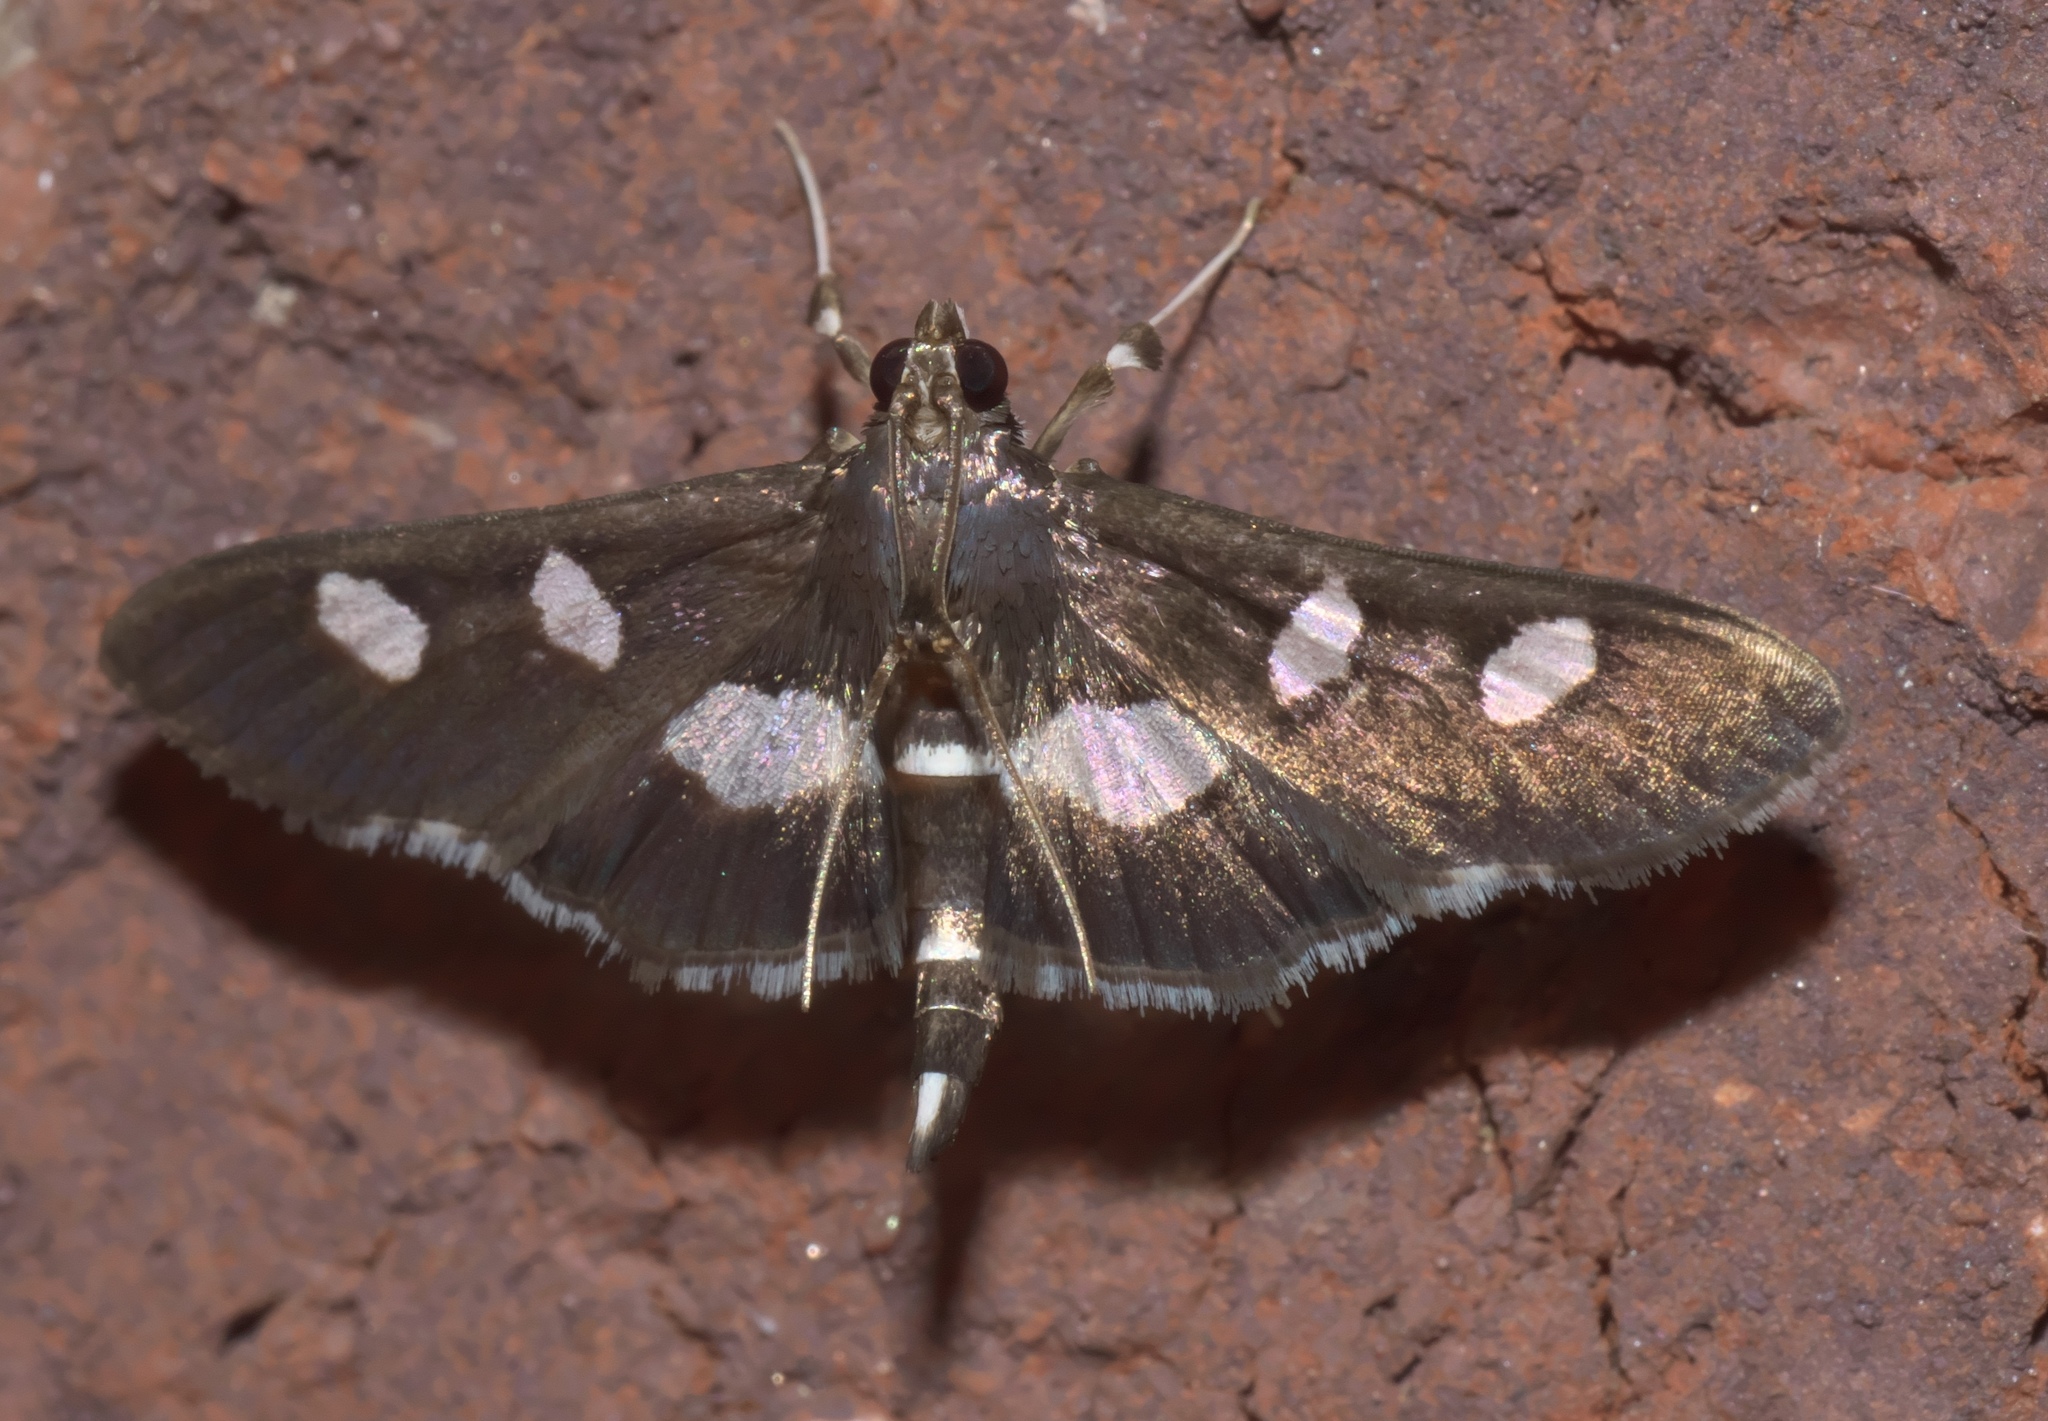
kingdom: Animalia
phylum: Arthropoda
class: Insecta
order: Lepidoptera
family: Crambidae
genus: Desmia
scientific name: Desmia
